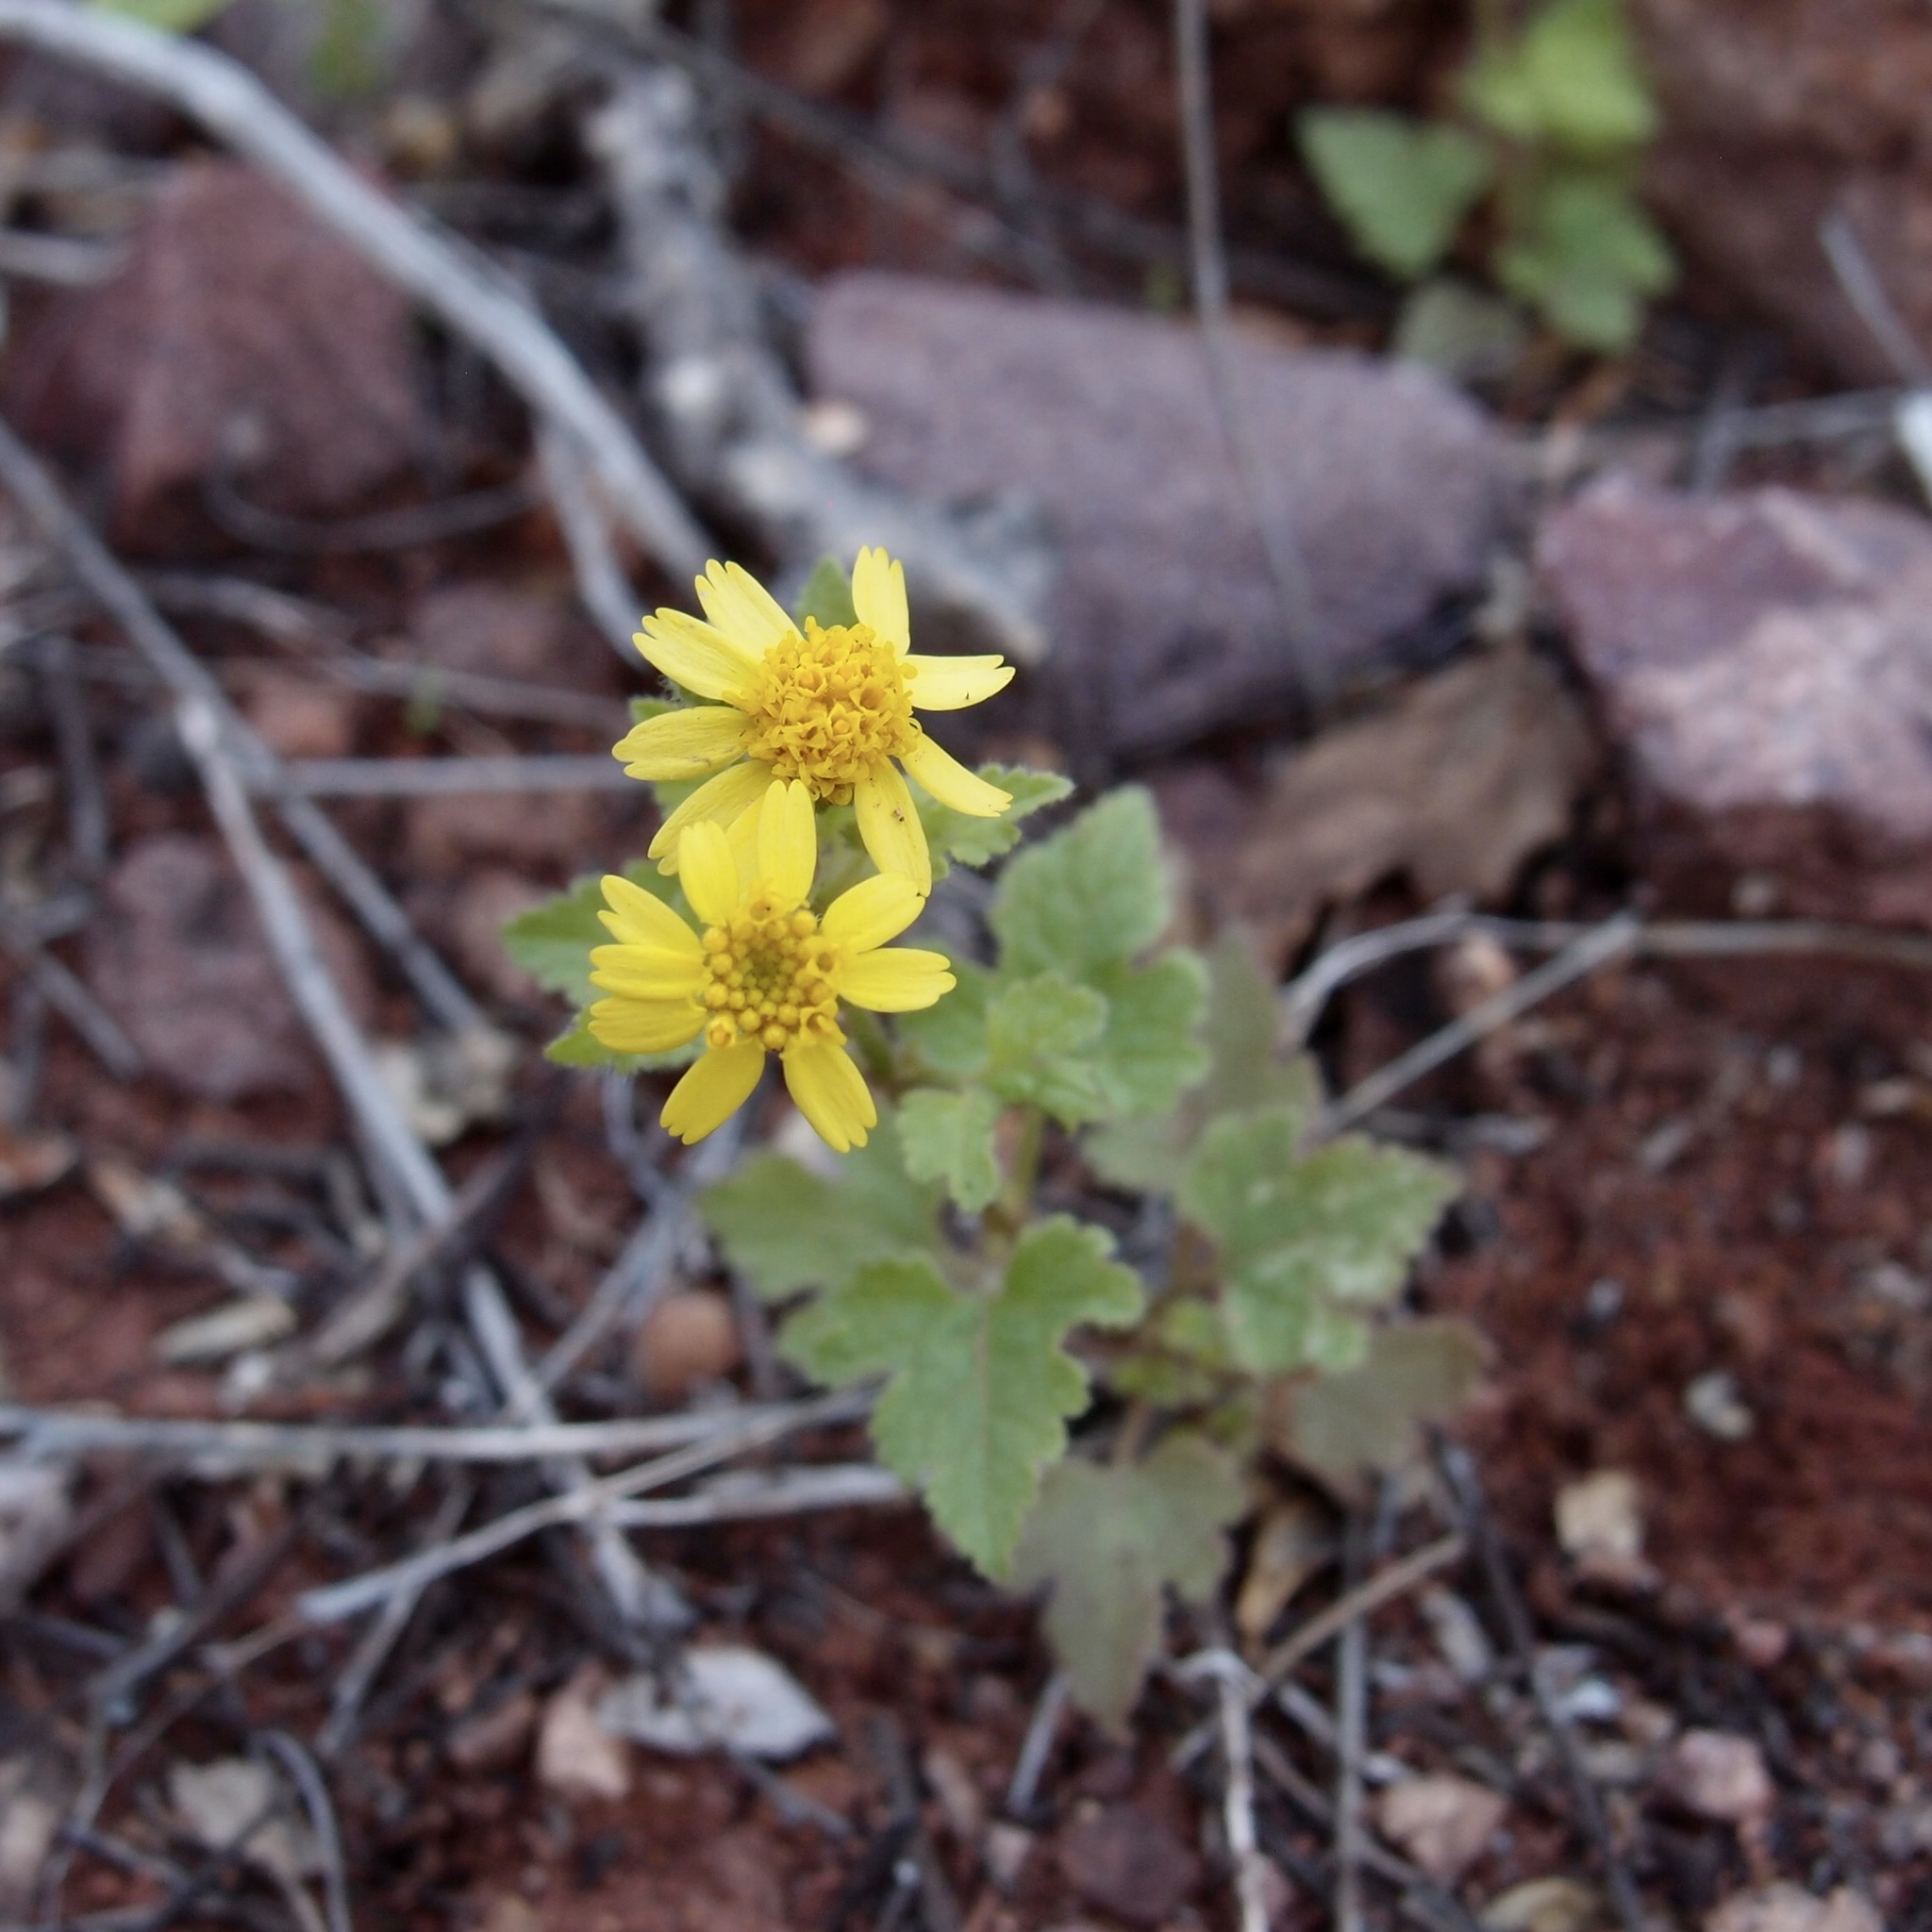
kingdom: Plantae
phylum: Tracheophyta
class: Magnoliopsida
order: Asterales
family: Asteraceae
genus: Perityle
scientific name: Perityle californica
